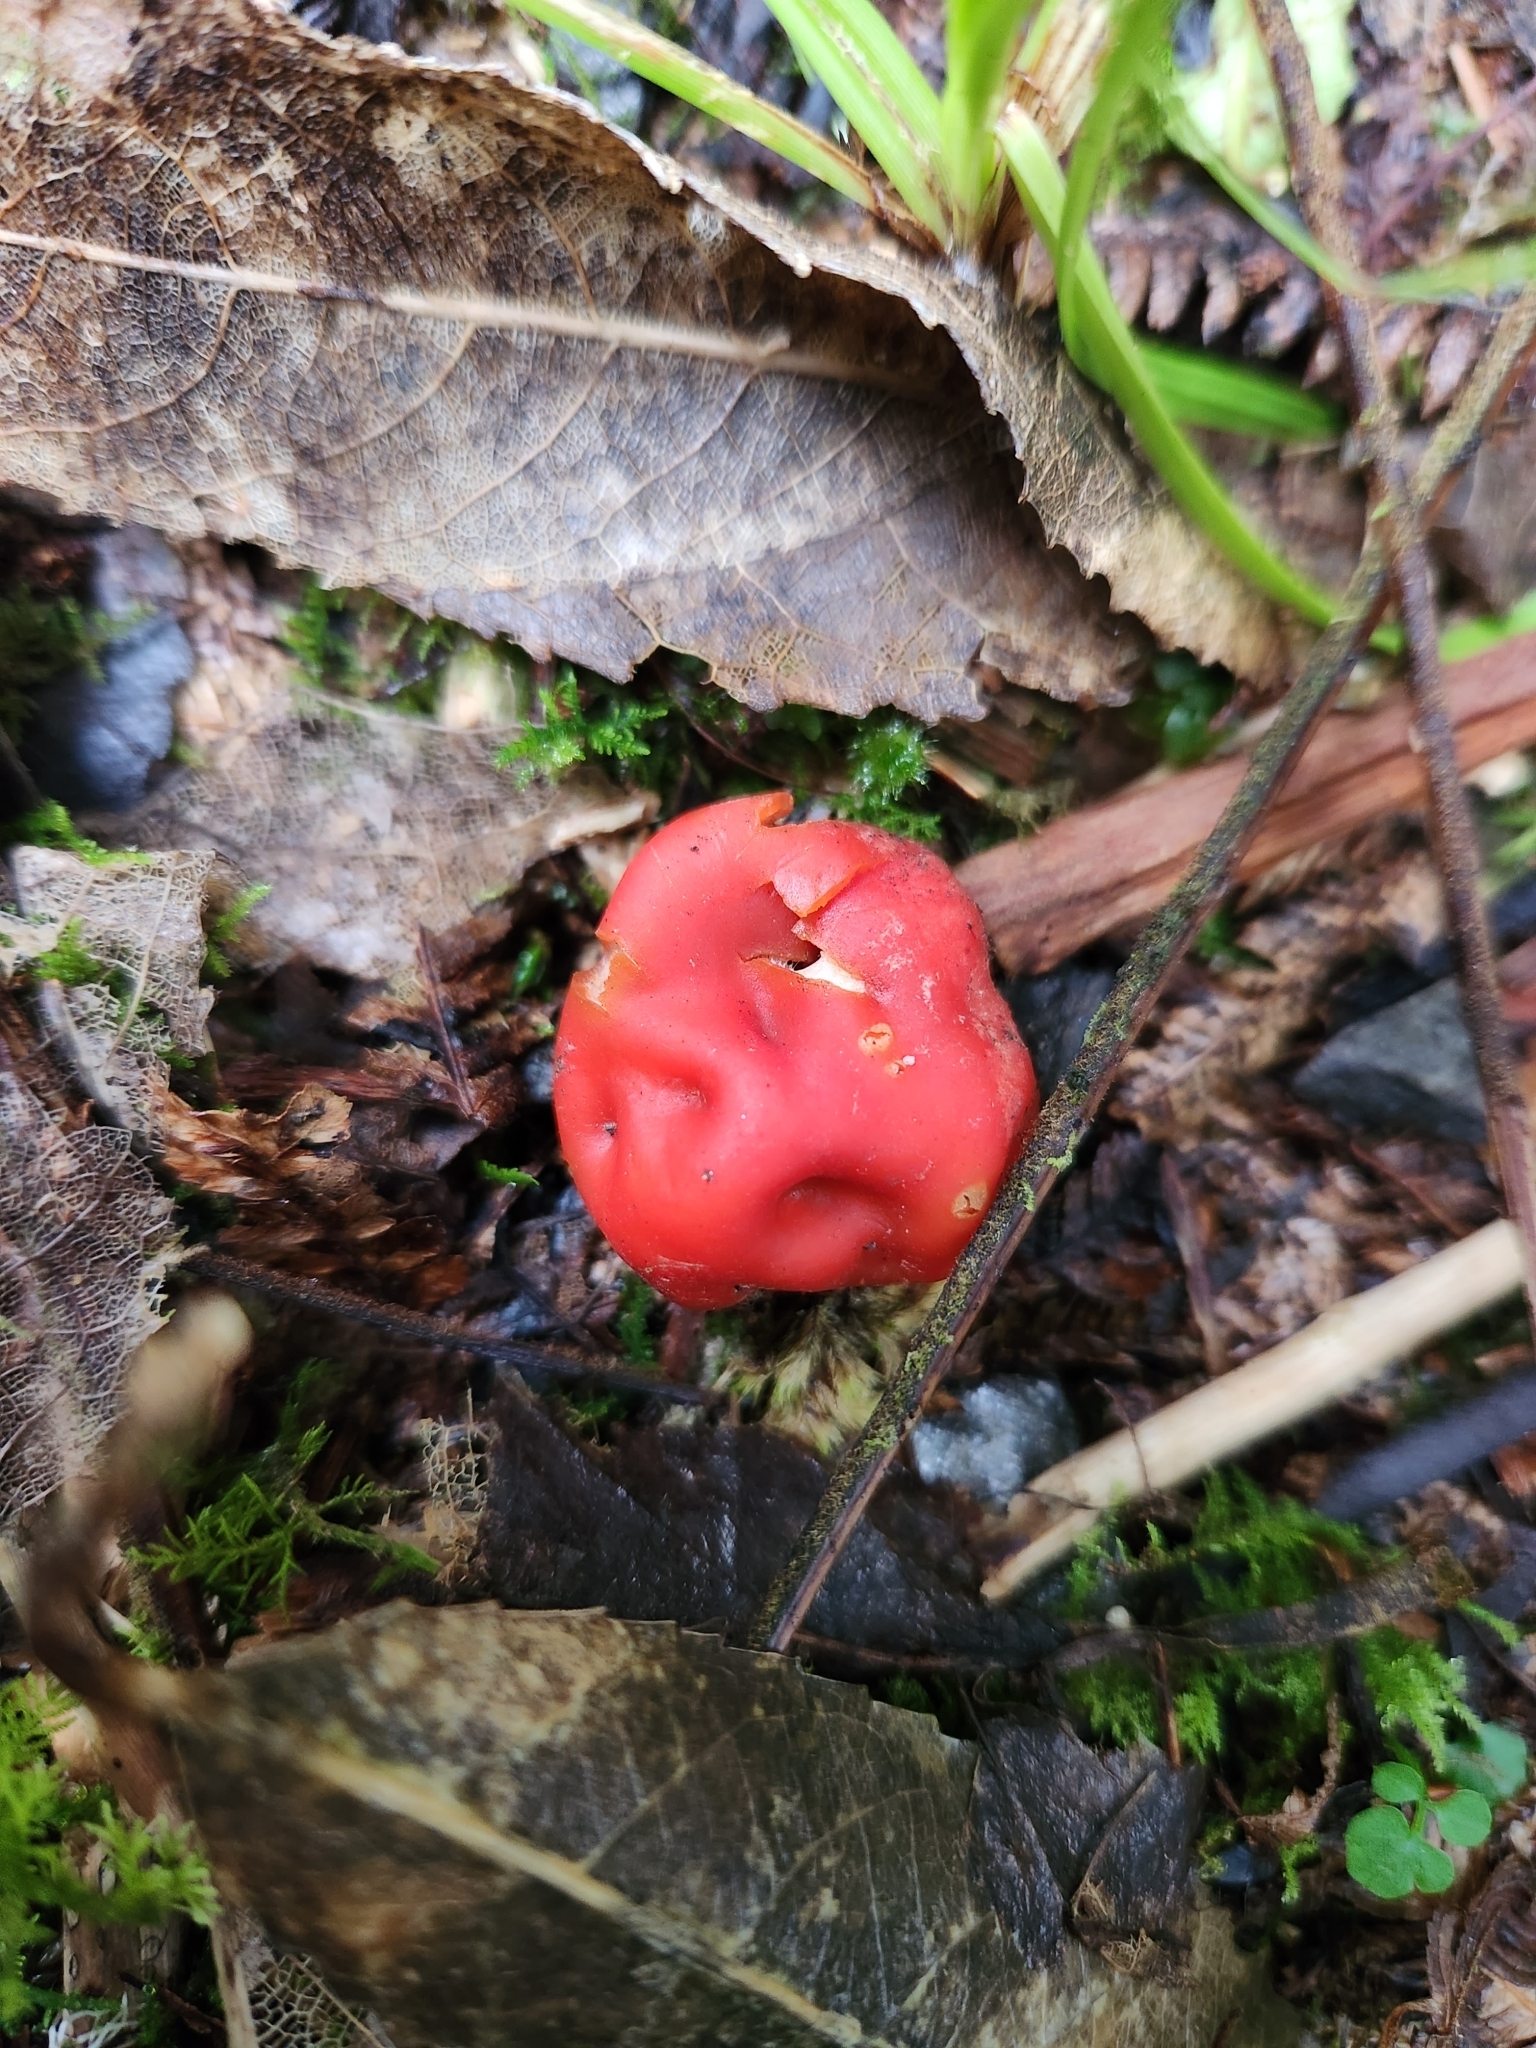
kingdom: Fungi
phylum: Ascomycota
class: Pezizomycetes
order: Pezizales
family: Pyronemataceae
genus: Paurocotylis
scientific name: Paurocotylis pila
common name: Scarlet berry truffle
